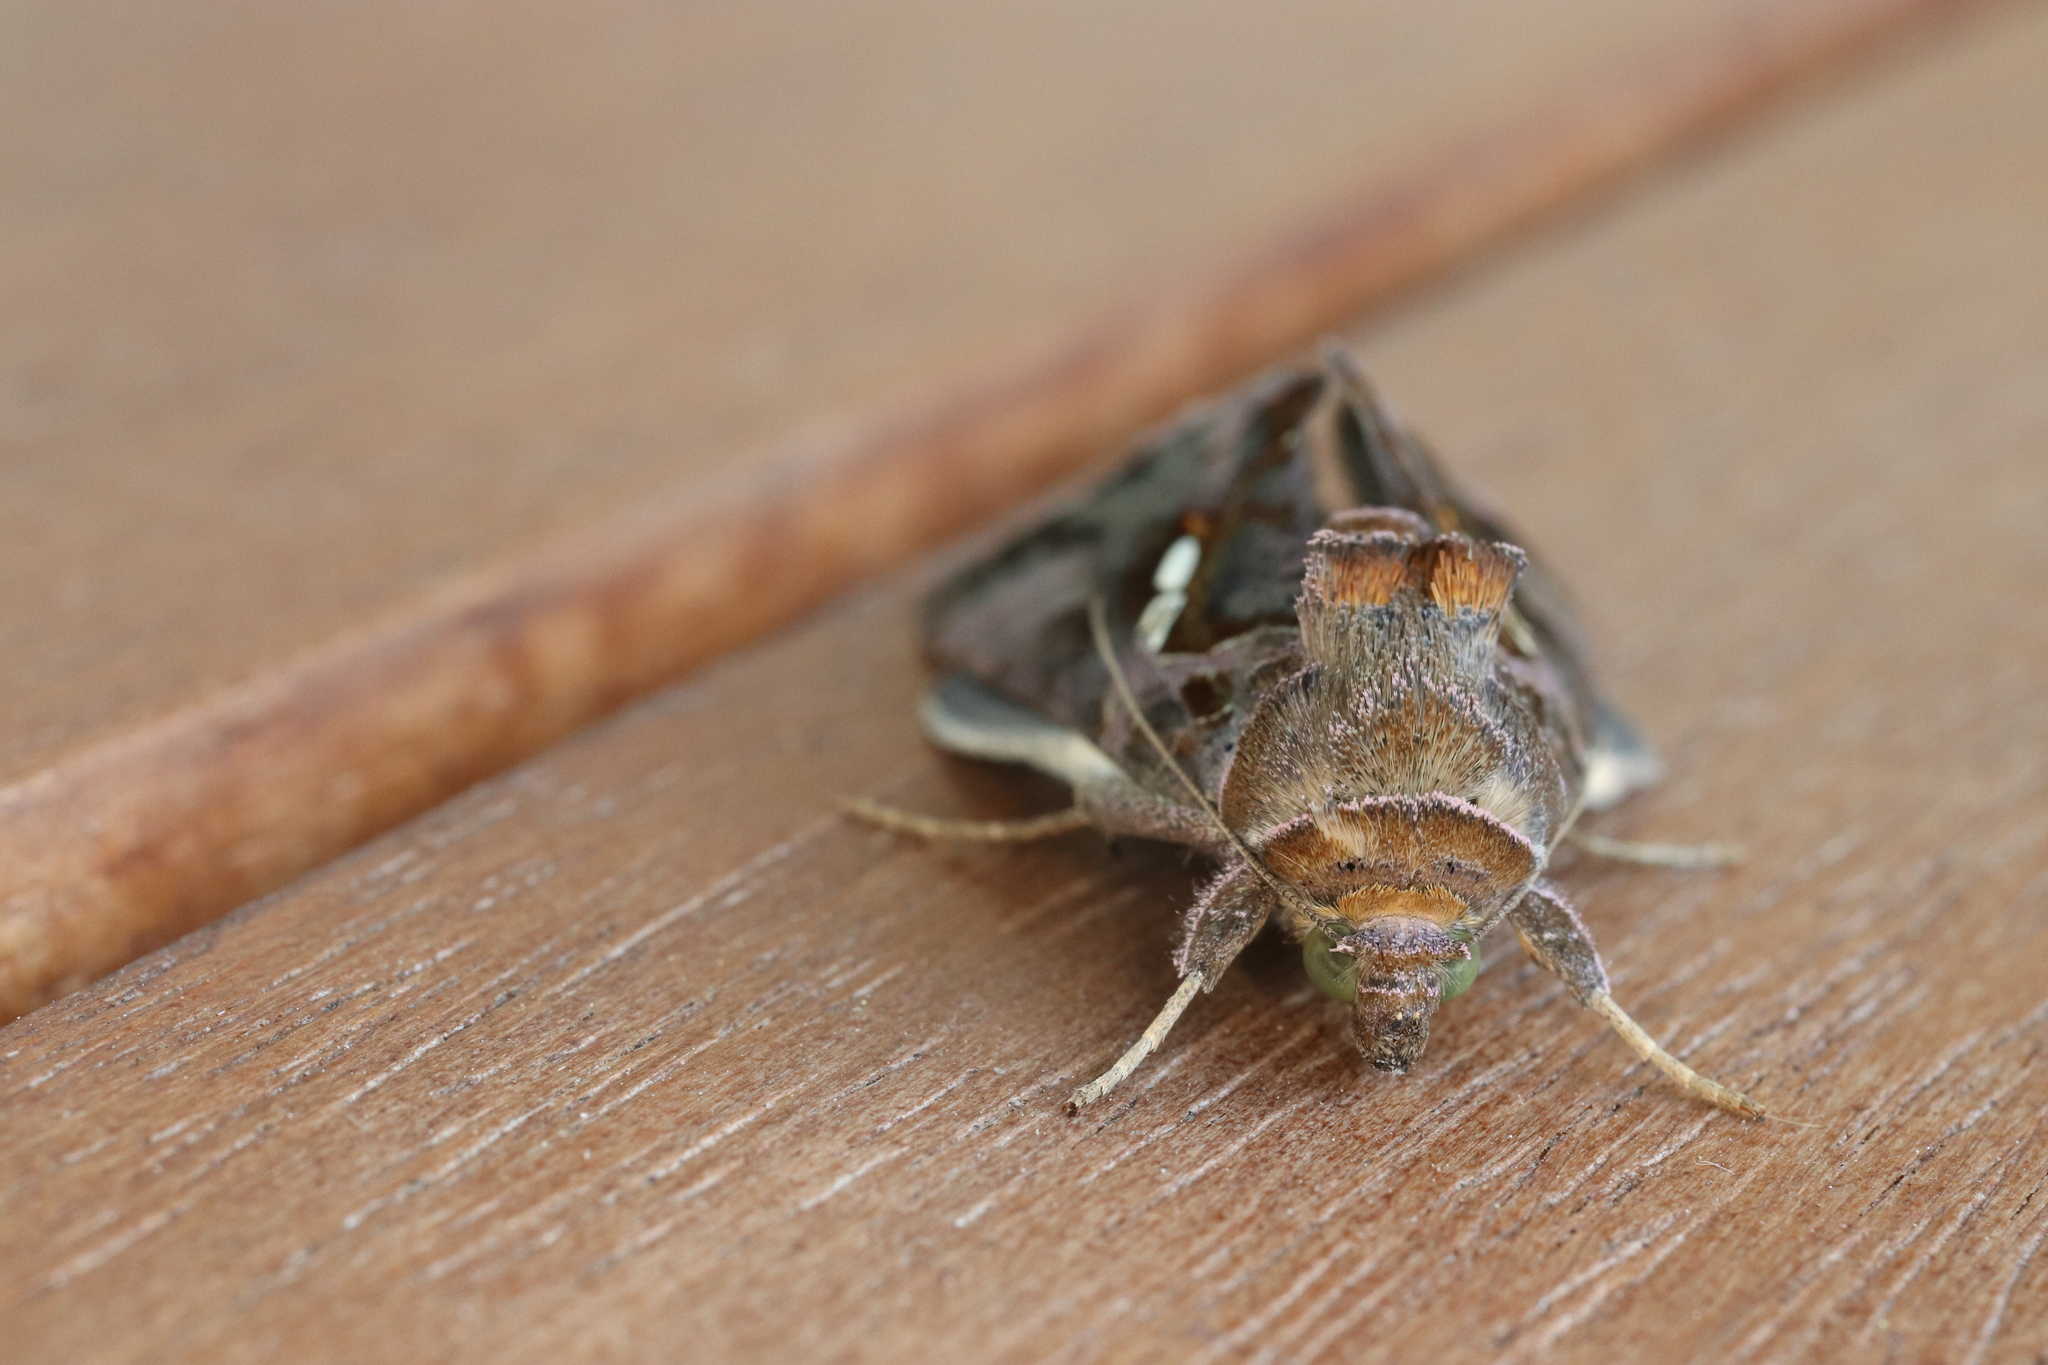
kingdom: Animalia
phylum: Arthropoda
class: Insecta
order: Lepidoptera
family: Noctuidae
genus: Chrysodeixis
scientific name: Chrysodeixis eriosoma
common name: Green garden looper
